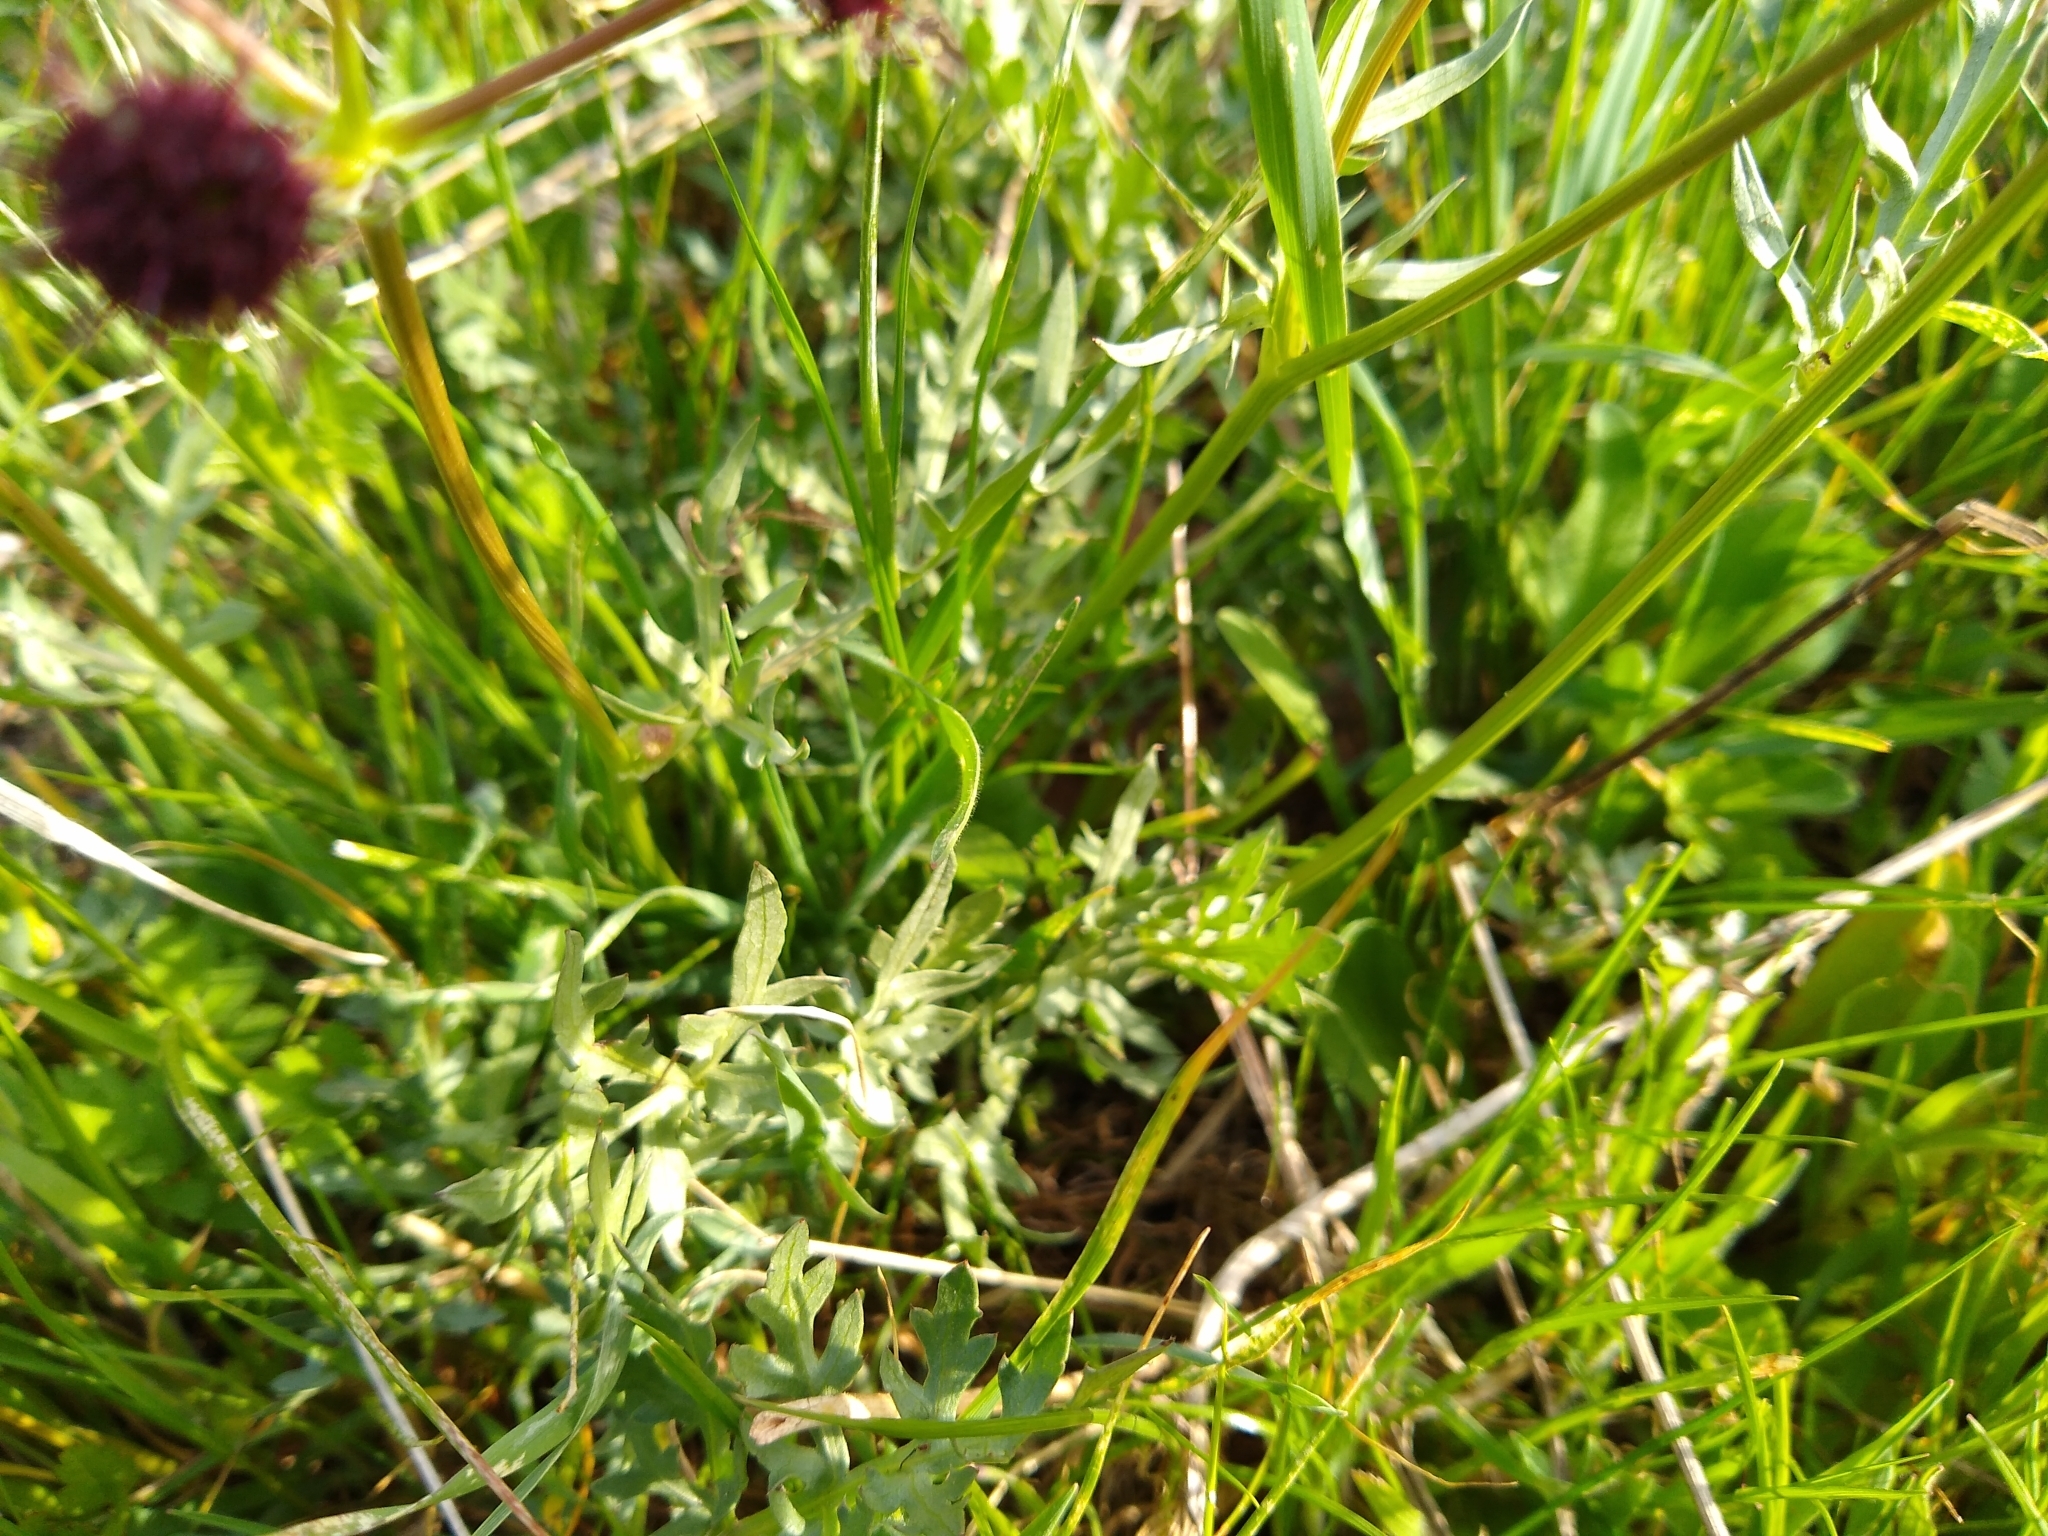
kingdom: Plantae
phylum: Tracheophyta
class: Magnoliopsida
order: Apiales
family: Apiaceae
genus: Sanicula
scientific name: Sanicula bipinnatifida
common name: Shoe-buttons
